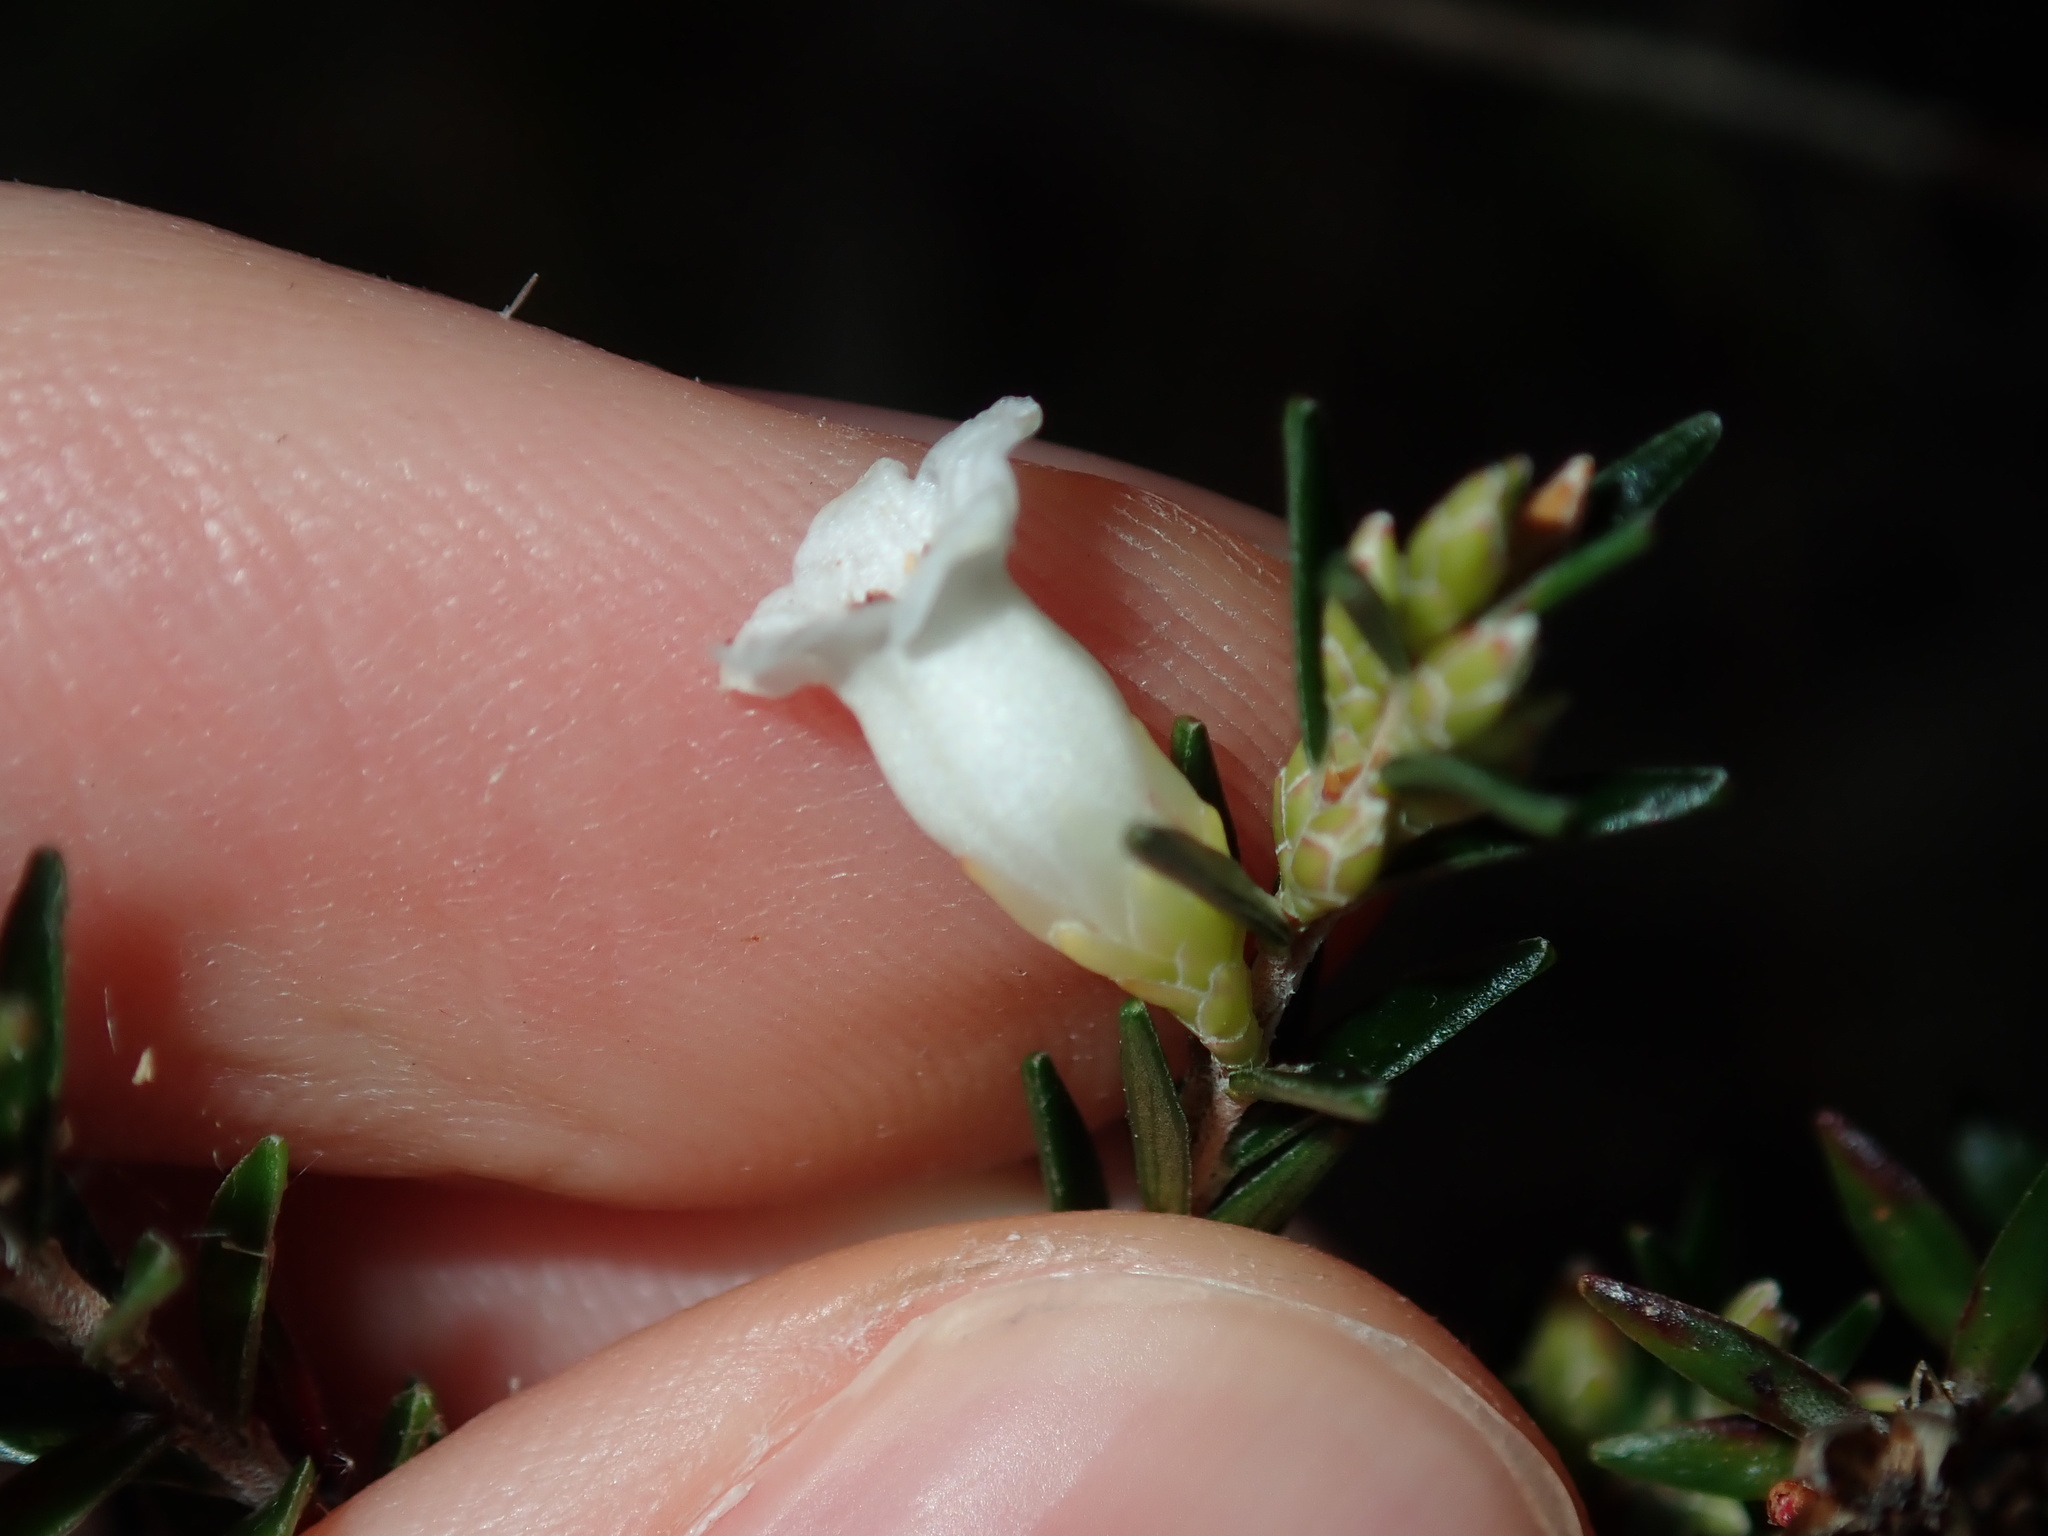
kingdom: Plantae
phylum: Tracheophyta
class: Magnoliopsida
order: Ericales
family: Ericaceae
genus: Epacris
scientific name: Epacris obtusifolia
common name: Blunt-leaf australian-heath
